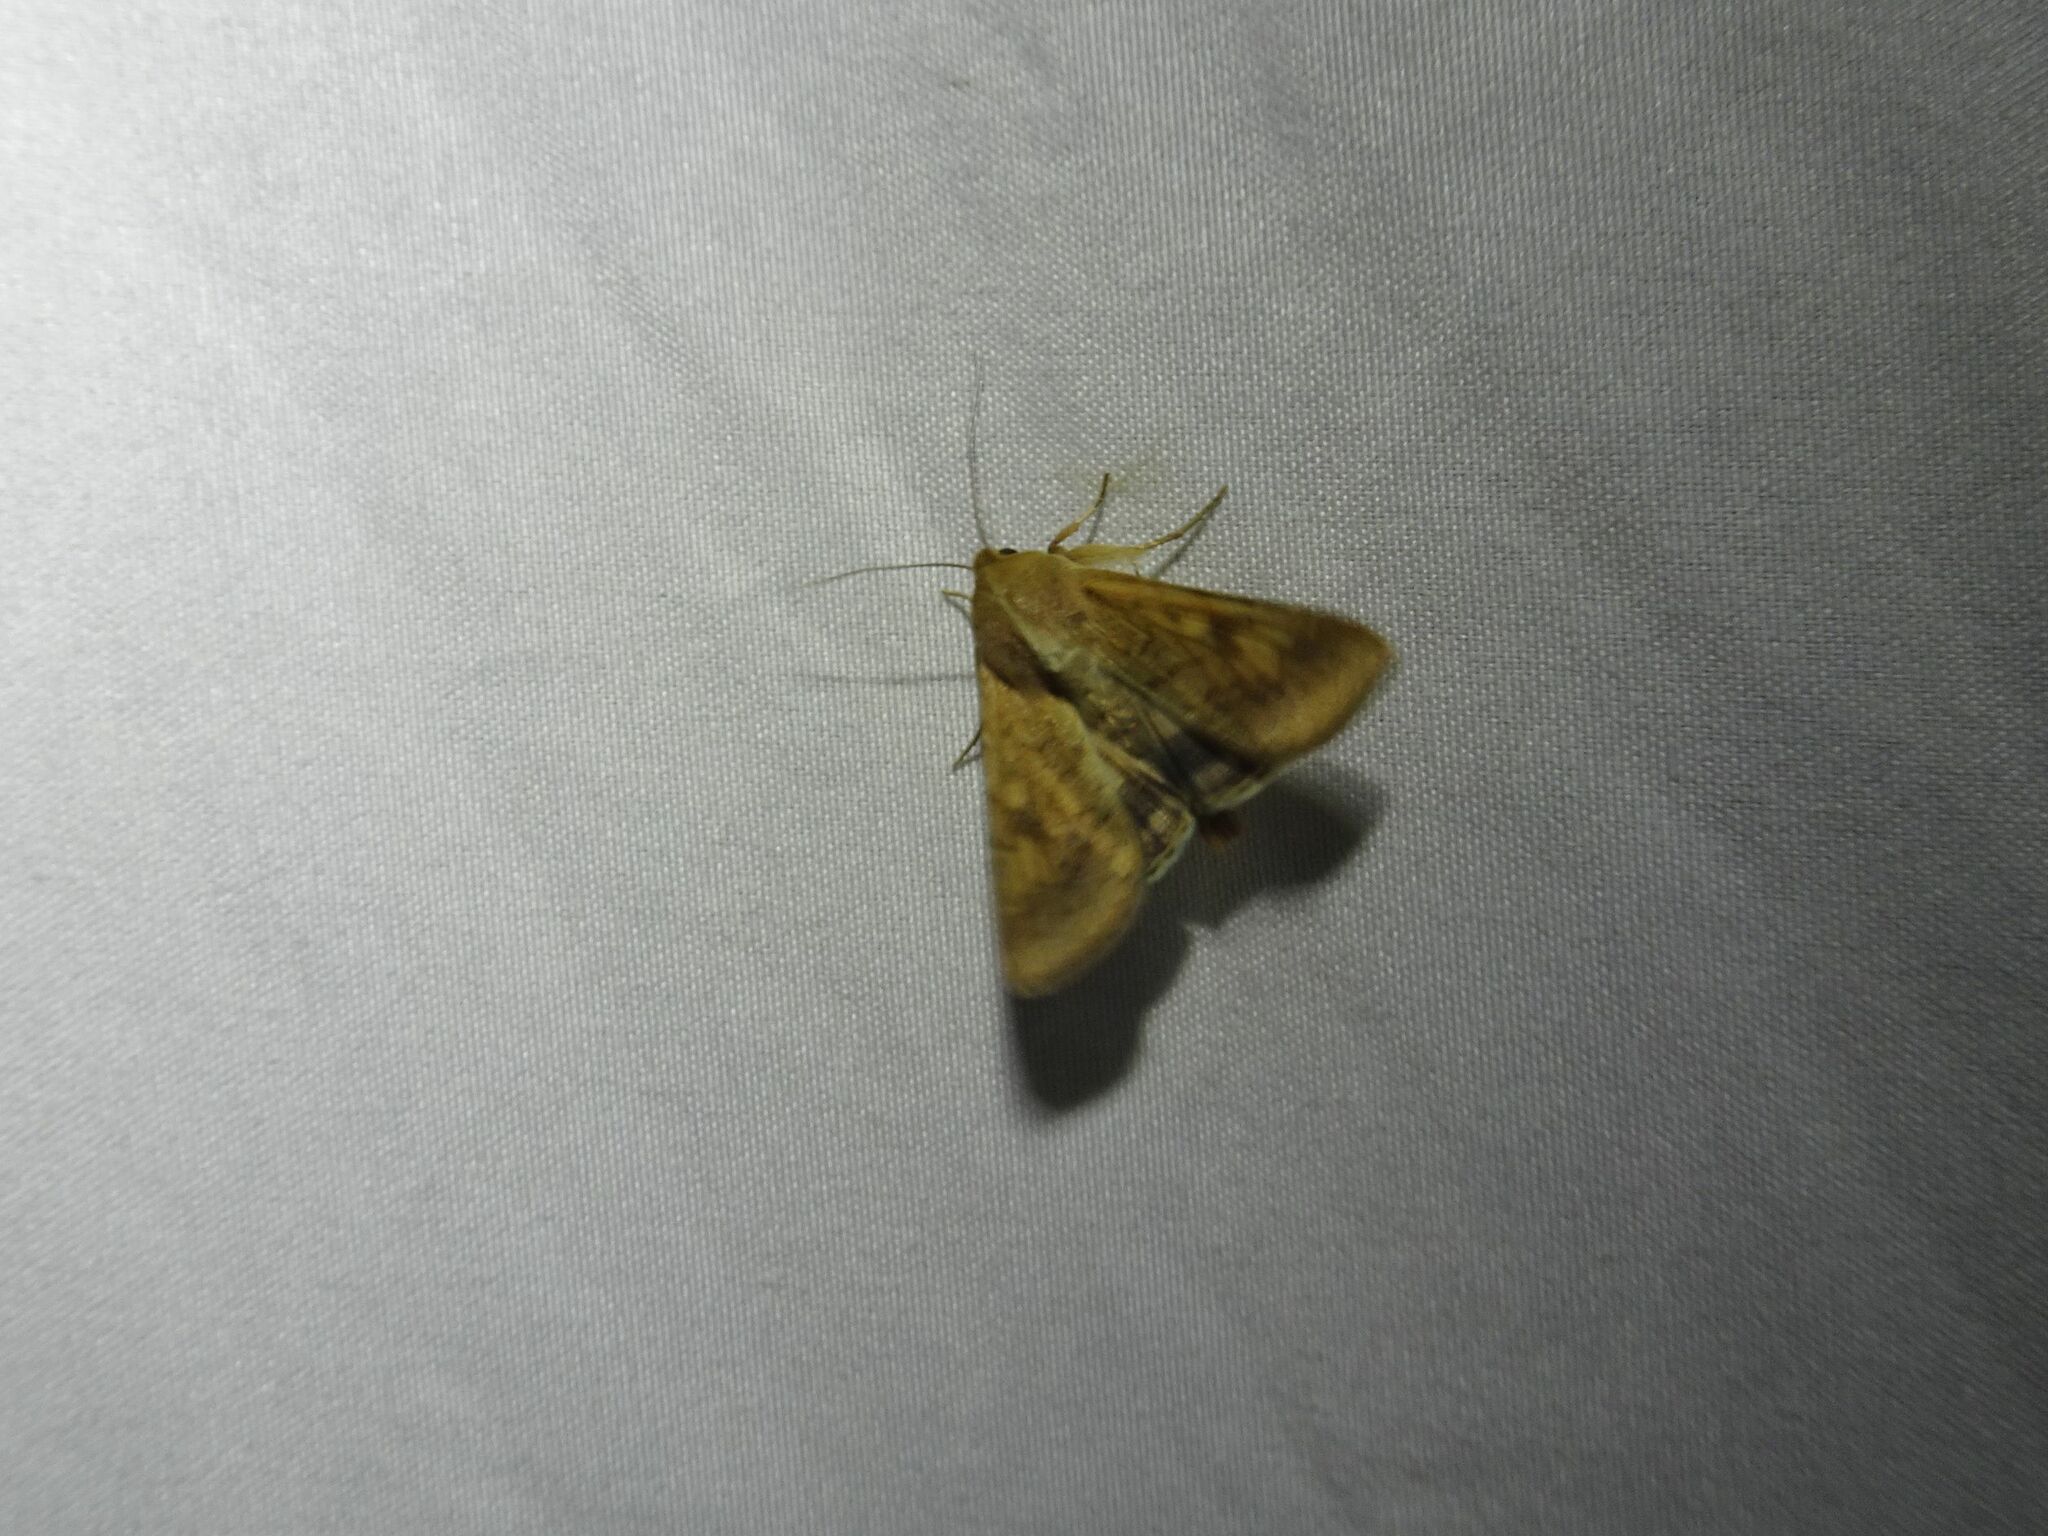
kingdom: Animalia
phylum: Arthropoda
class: Insecta
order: Lepidoptera
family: Noctuidae
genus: Helicoverpa
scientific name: Helicoverpa armigera
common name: Cotton bollworm
